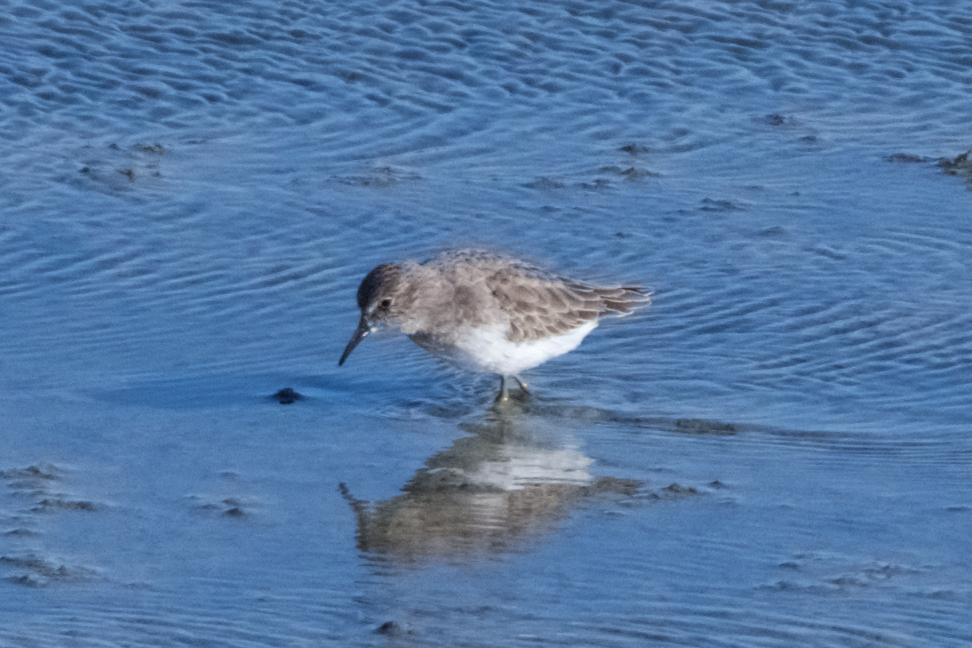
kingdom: Animalia
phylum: Chordata
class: Aves
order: Charadriiformes
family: Scolopacidae
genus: Calidris
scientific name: Calidris minutilla
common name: Least sandpiper
